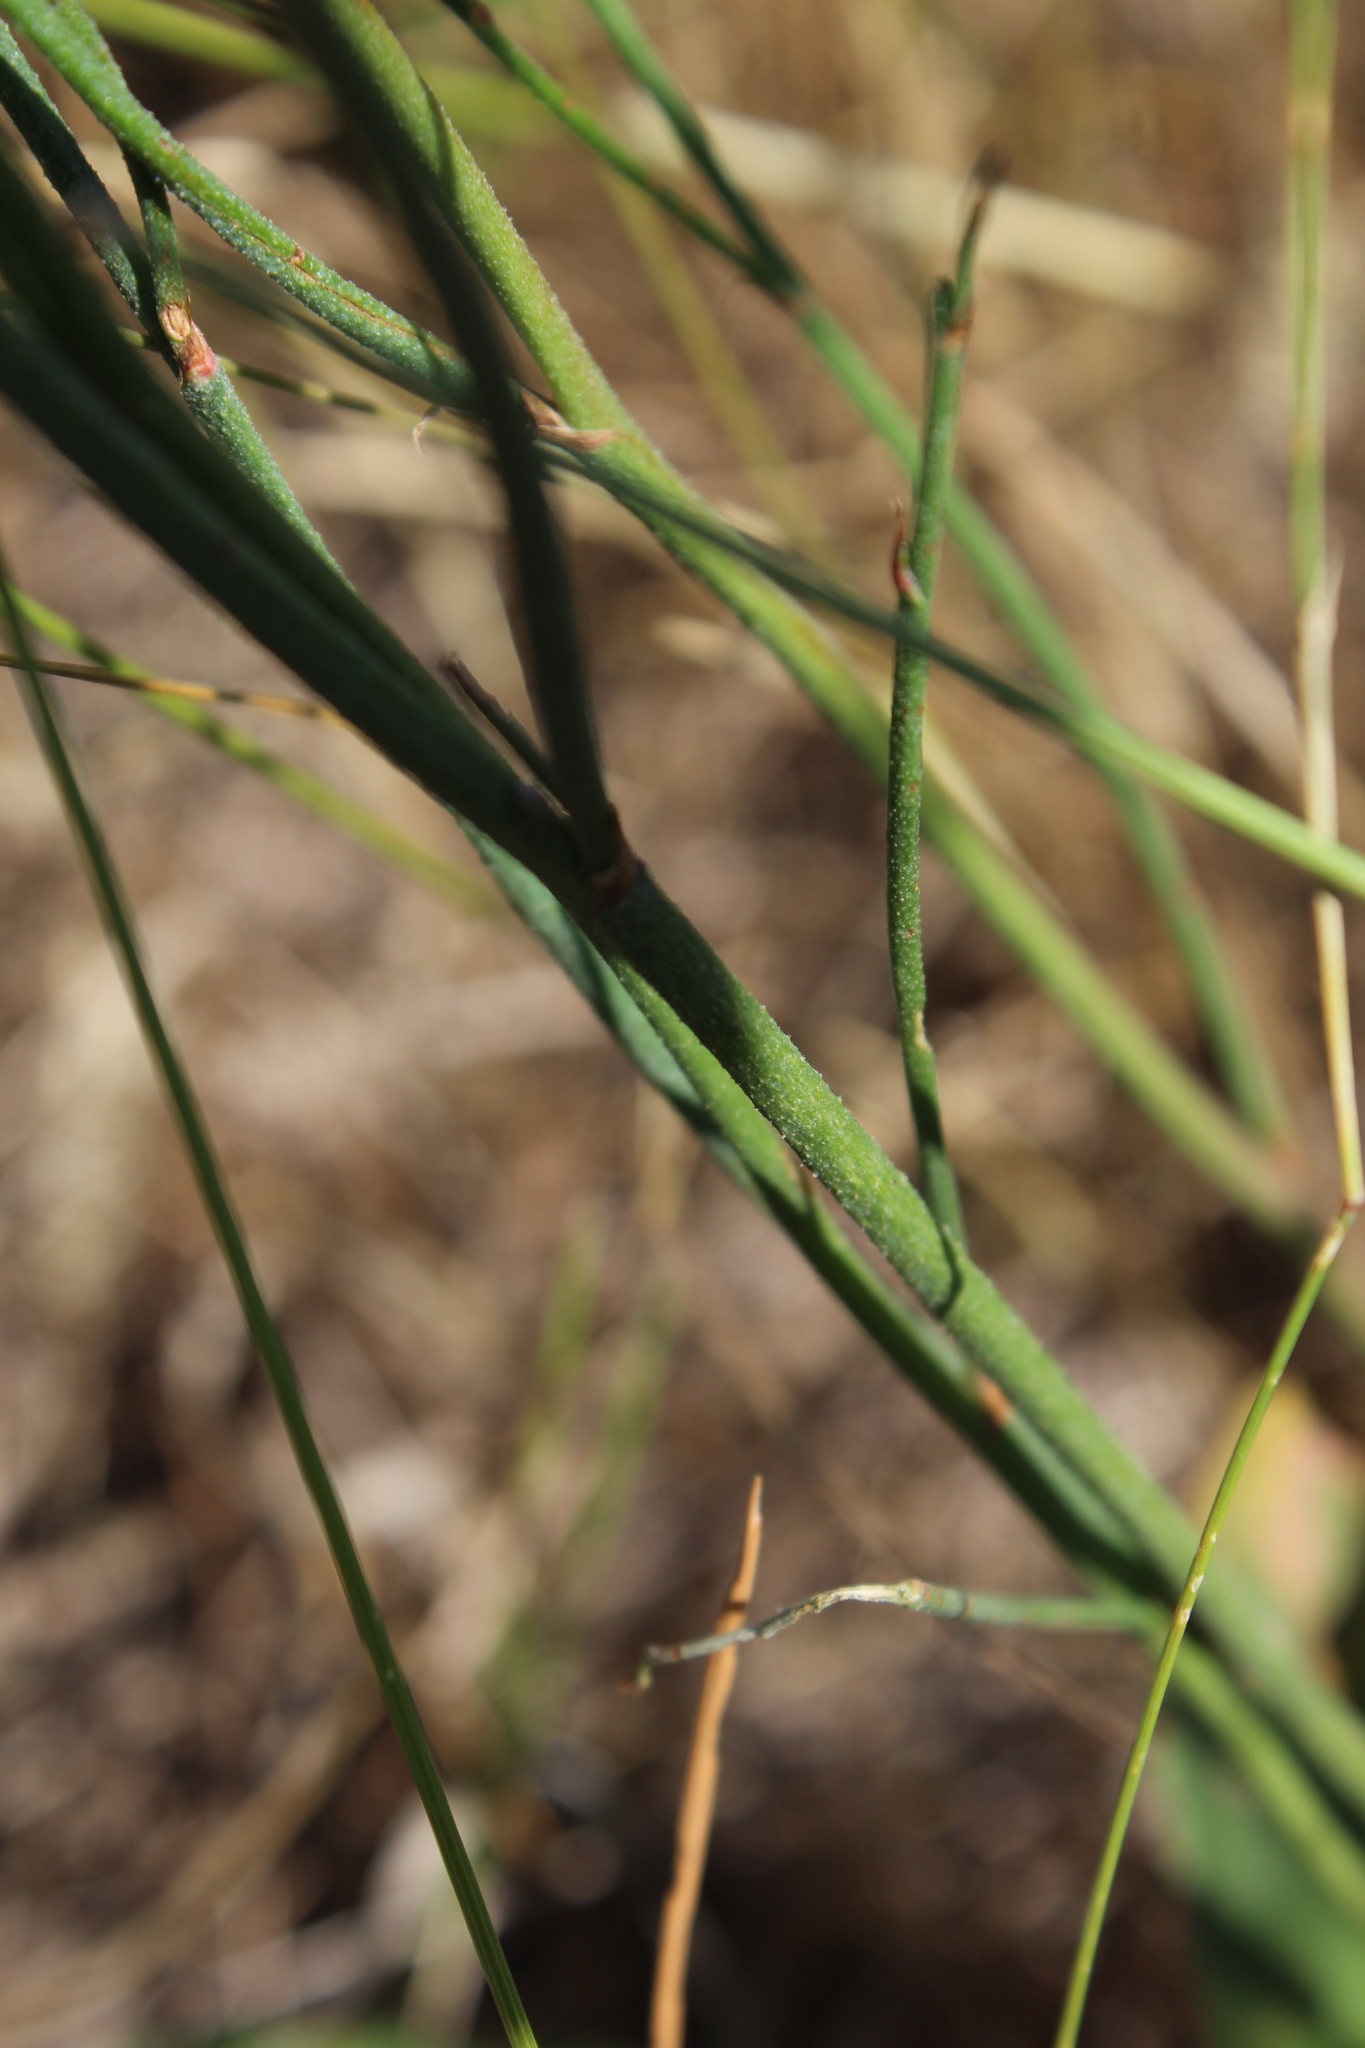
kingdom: Plantae
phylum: Tracheophyta
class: Magnoliopsida
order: Caryophyllales
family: Plumbaginaceae
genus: Limonium
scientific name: Limonium sareptanum
